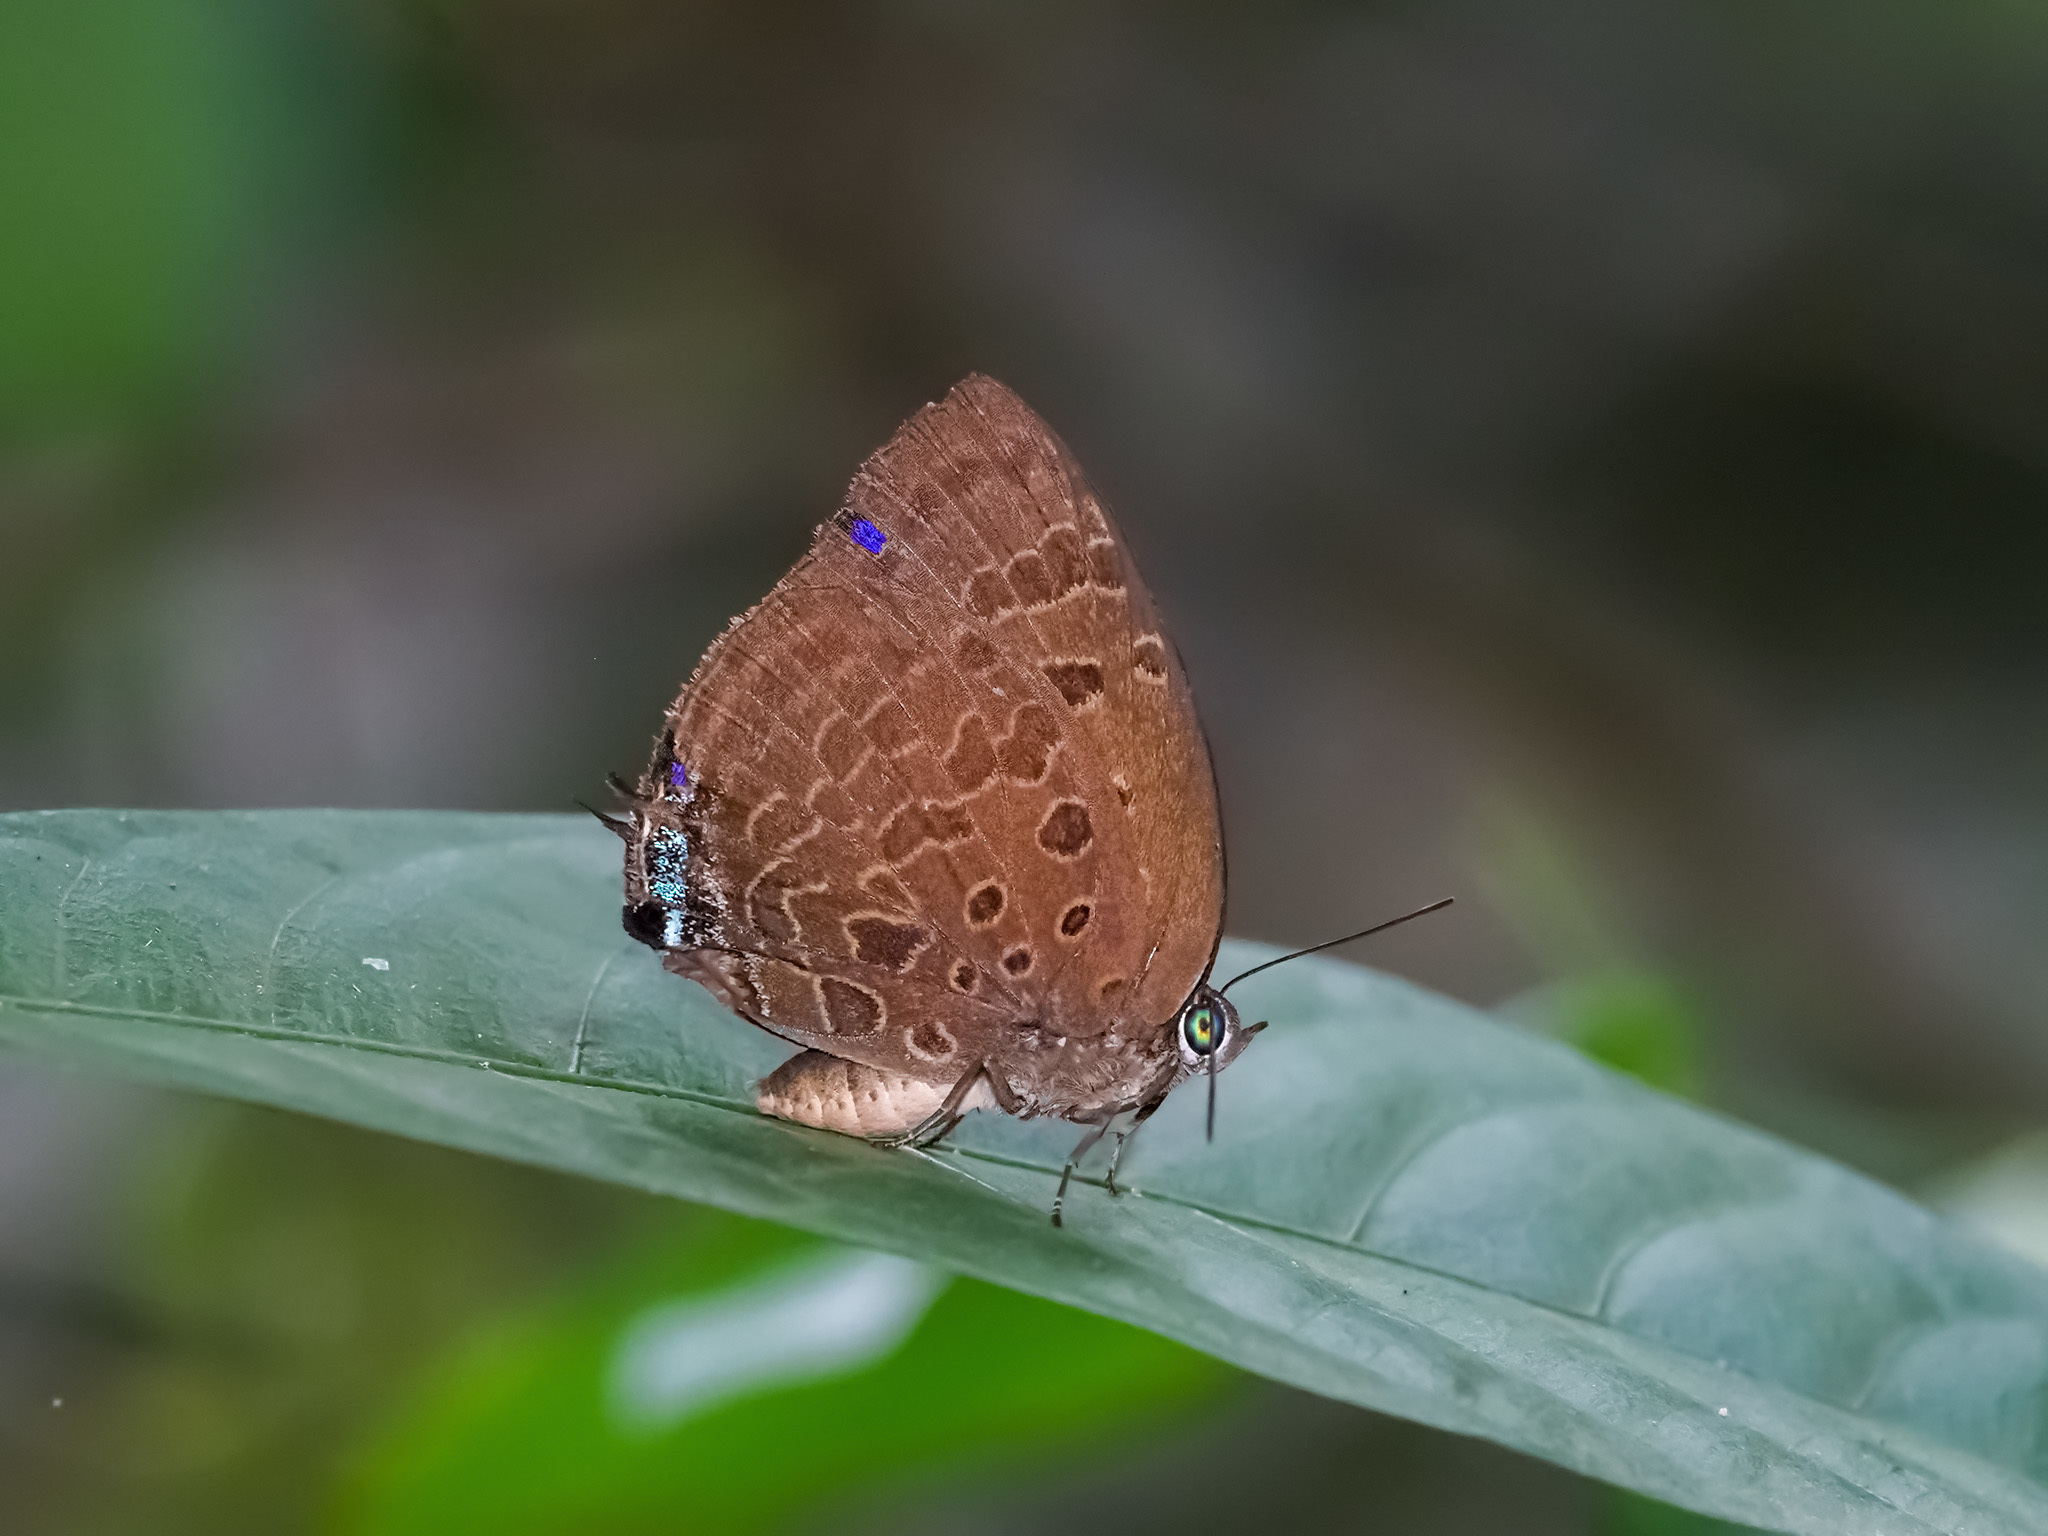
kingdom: Animalia
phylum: Arthropoda
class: Insecta
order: Lepidoptera
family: Lycaenidae
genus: Arhopala
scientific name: Arhopala
